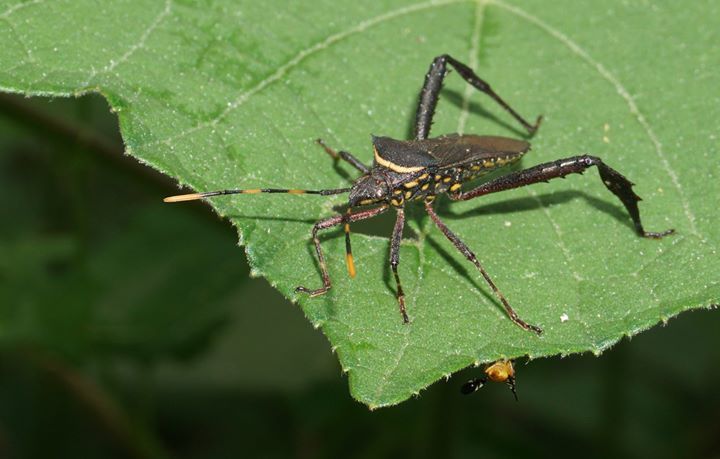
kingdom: Animalia
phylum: Arthropoda
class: Insecta
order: Hemiptera
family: Coreidae
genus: Leptoglossus
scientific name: Leptoglossus gonagra
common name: Citron bug
